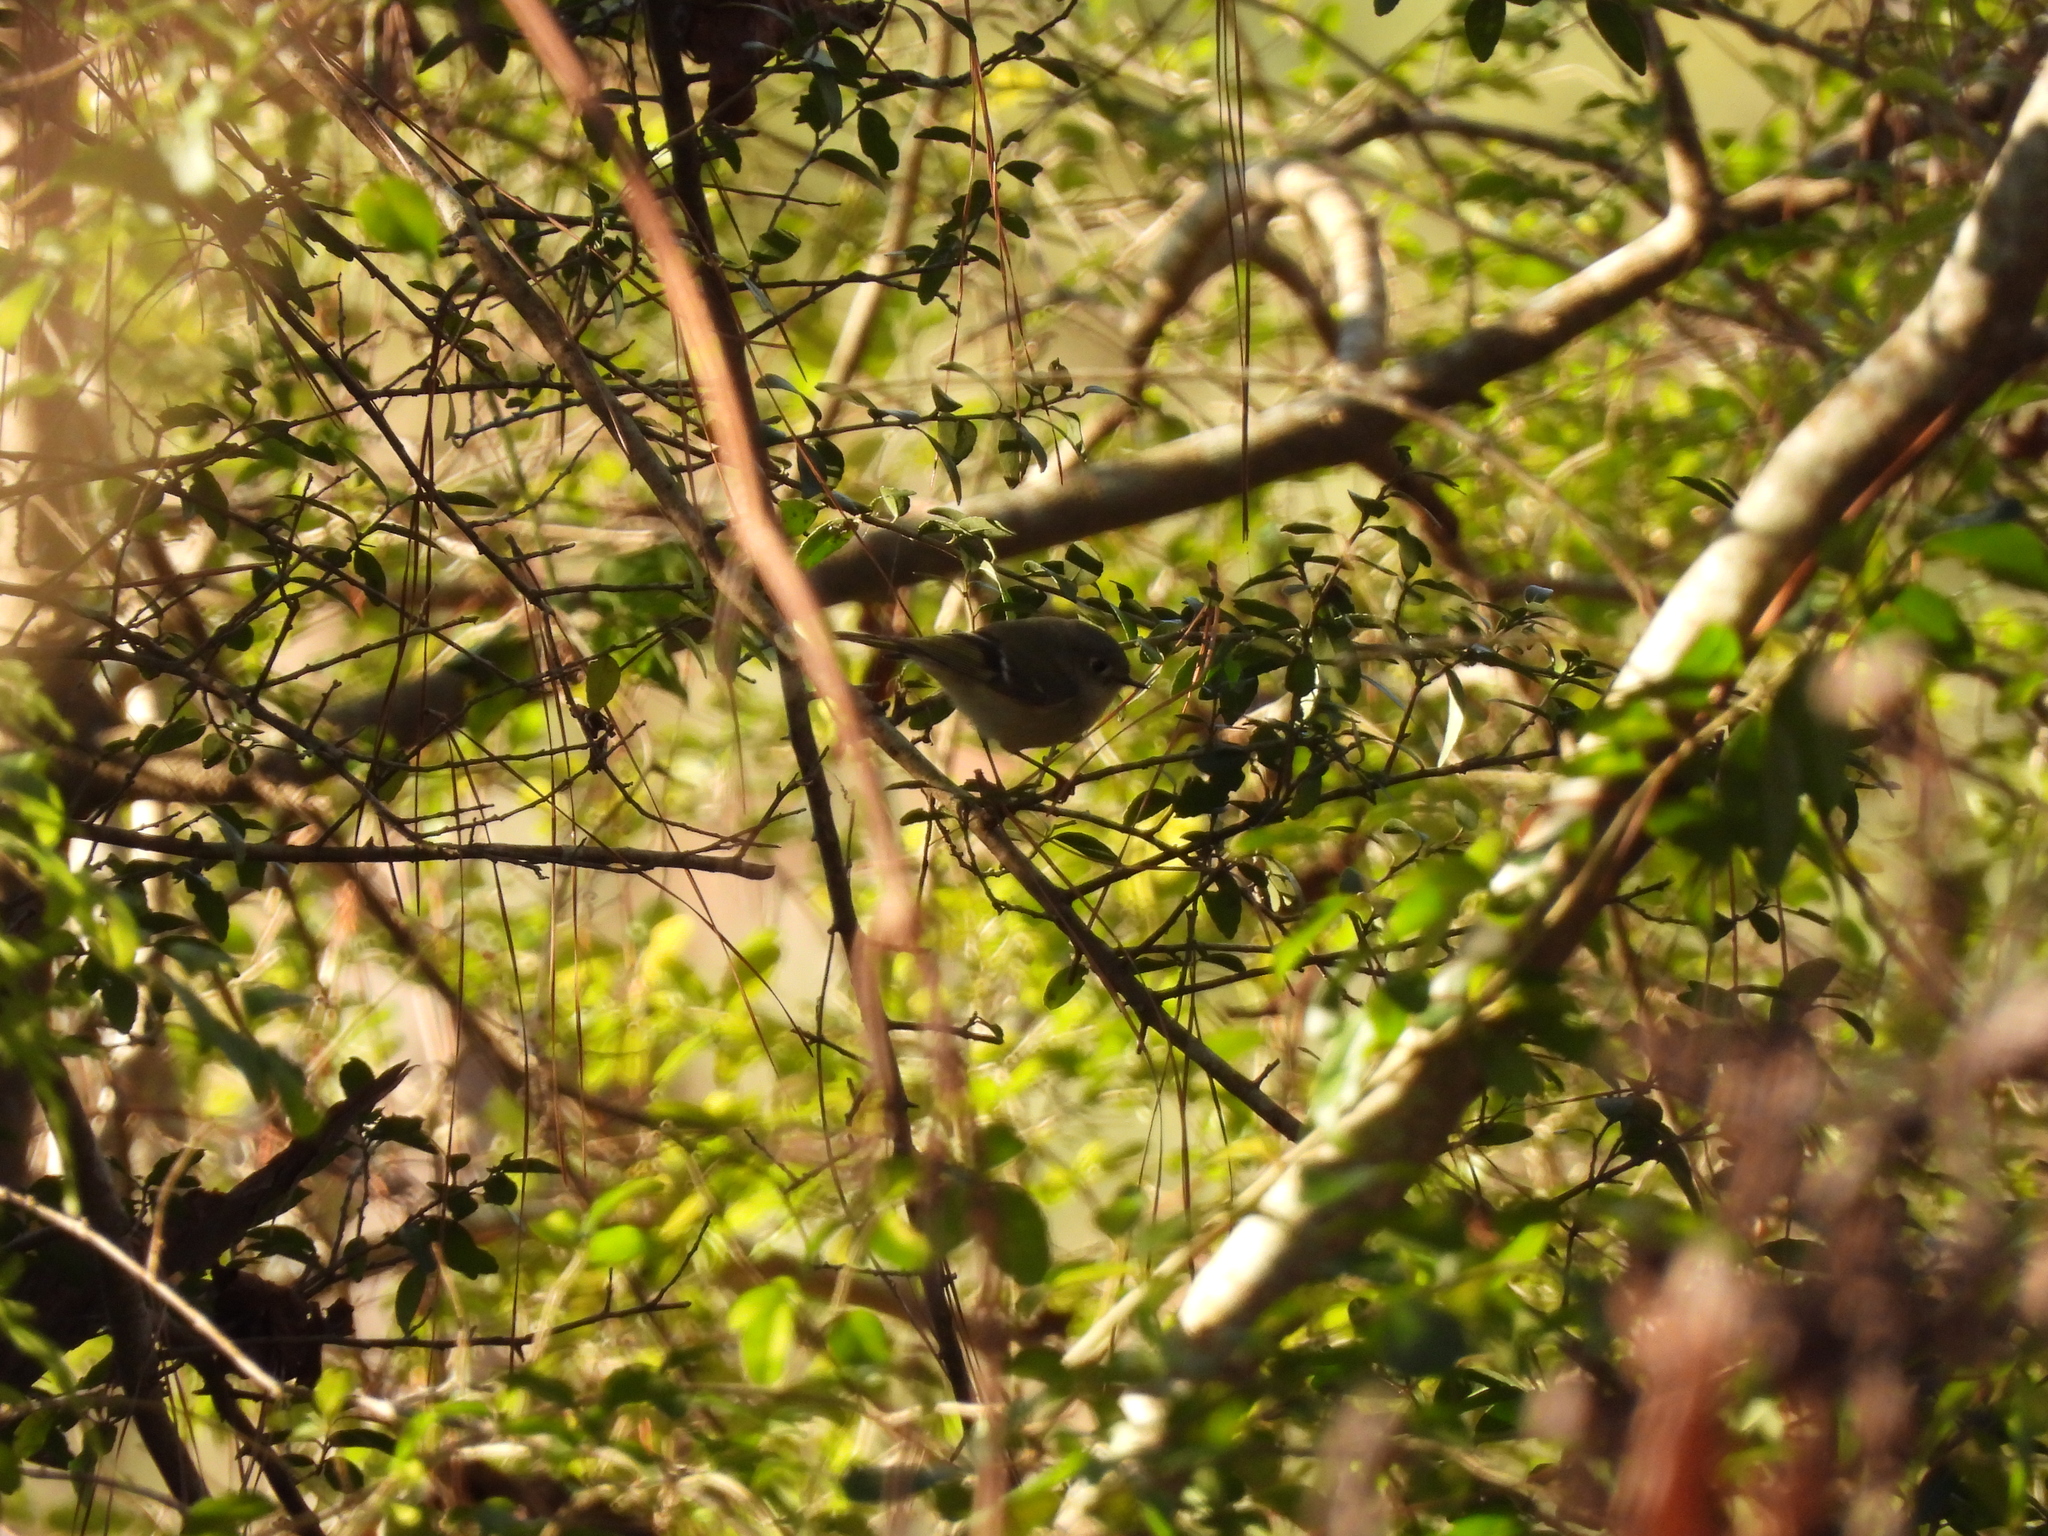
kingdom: Animalia
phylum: Chordata
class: Aves
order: Passeriformes
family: Regulidae
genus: Regulus
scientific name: Regulus calendula
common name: Ruby-crowned kinglet
